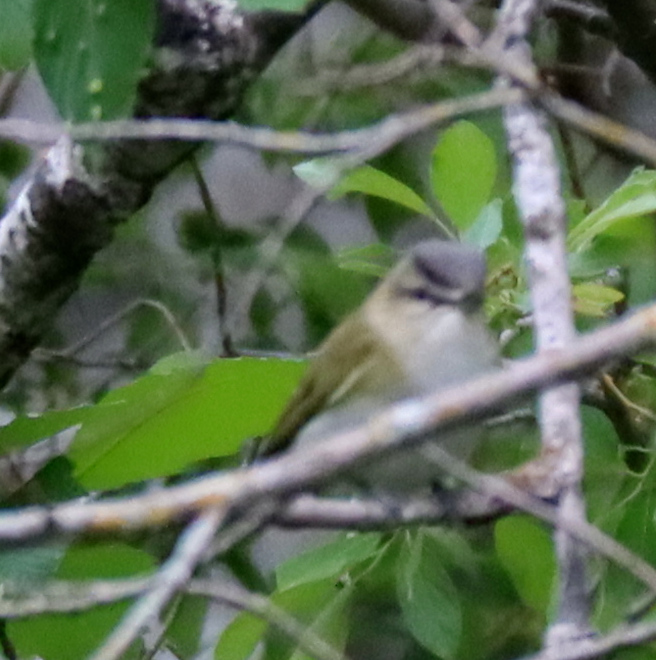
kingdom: Animalia
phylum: Chordata
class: Aves
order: Passeriformes
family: Vireonidae
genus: Vireo
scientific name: Vireo olivaceus
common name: Red-eyed vireo
